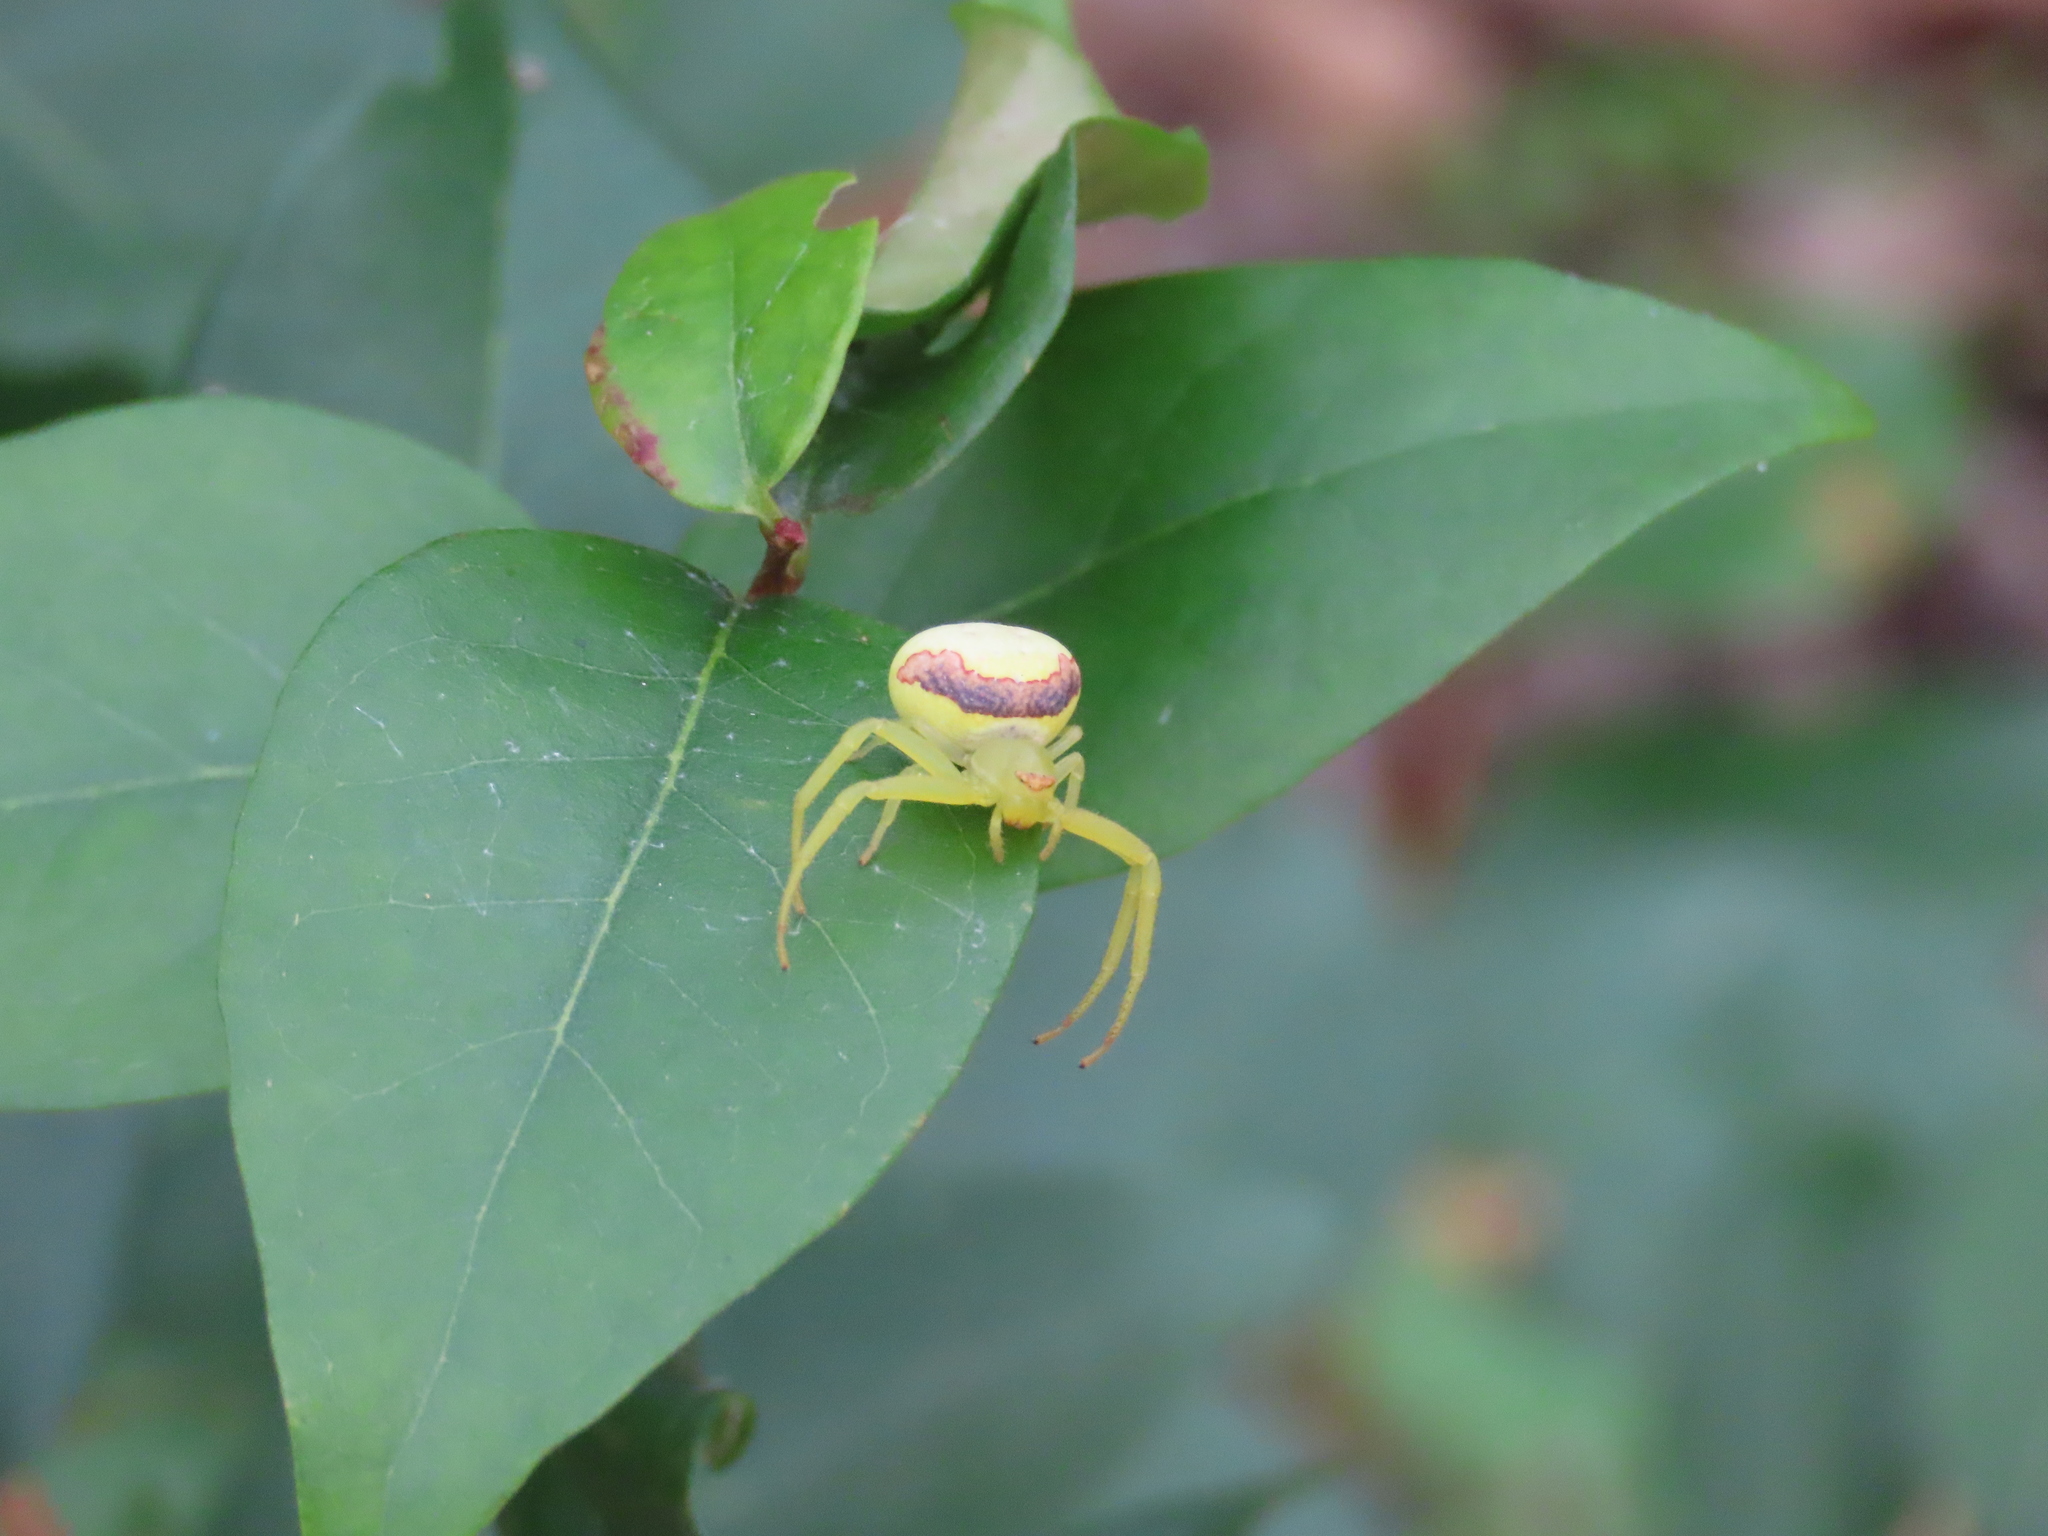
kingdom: Animalia
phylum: Arthropoda
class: Arachnida
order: Araneae
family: Thomisidae
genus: Misumenops
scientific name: Misumenops callinurus
